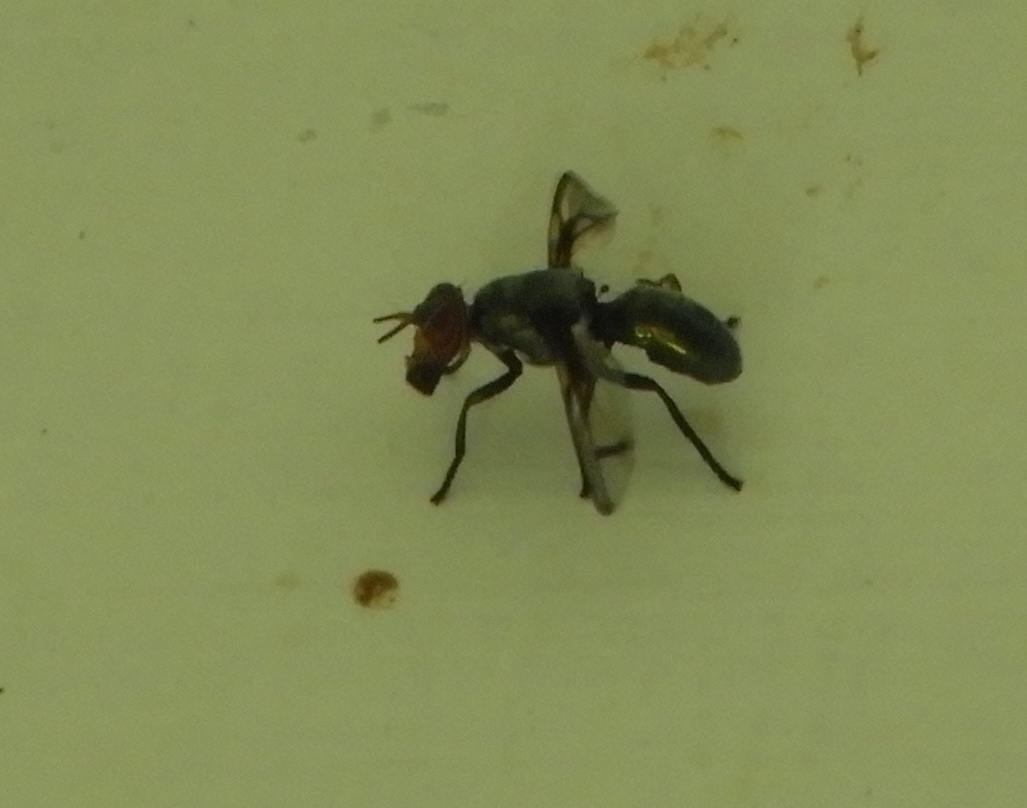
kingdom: Animalia
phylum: Arthropoda
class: Insecta
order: Diptera
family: Platystomatidae
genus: Senopterina
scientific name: Senopterina
